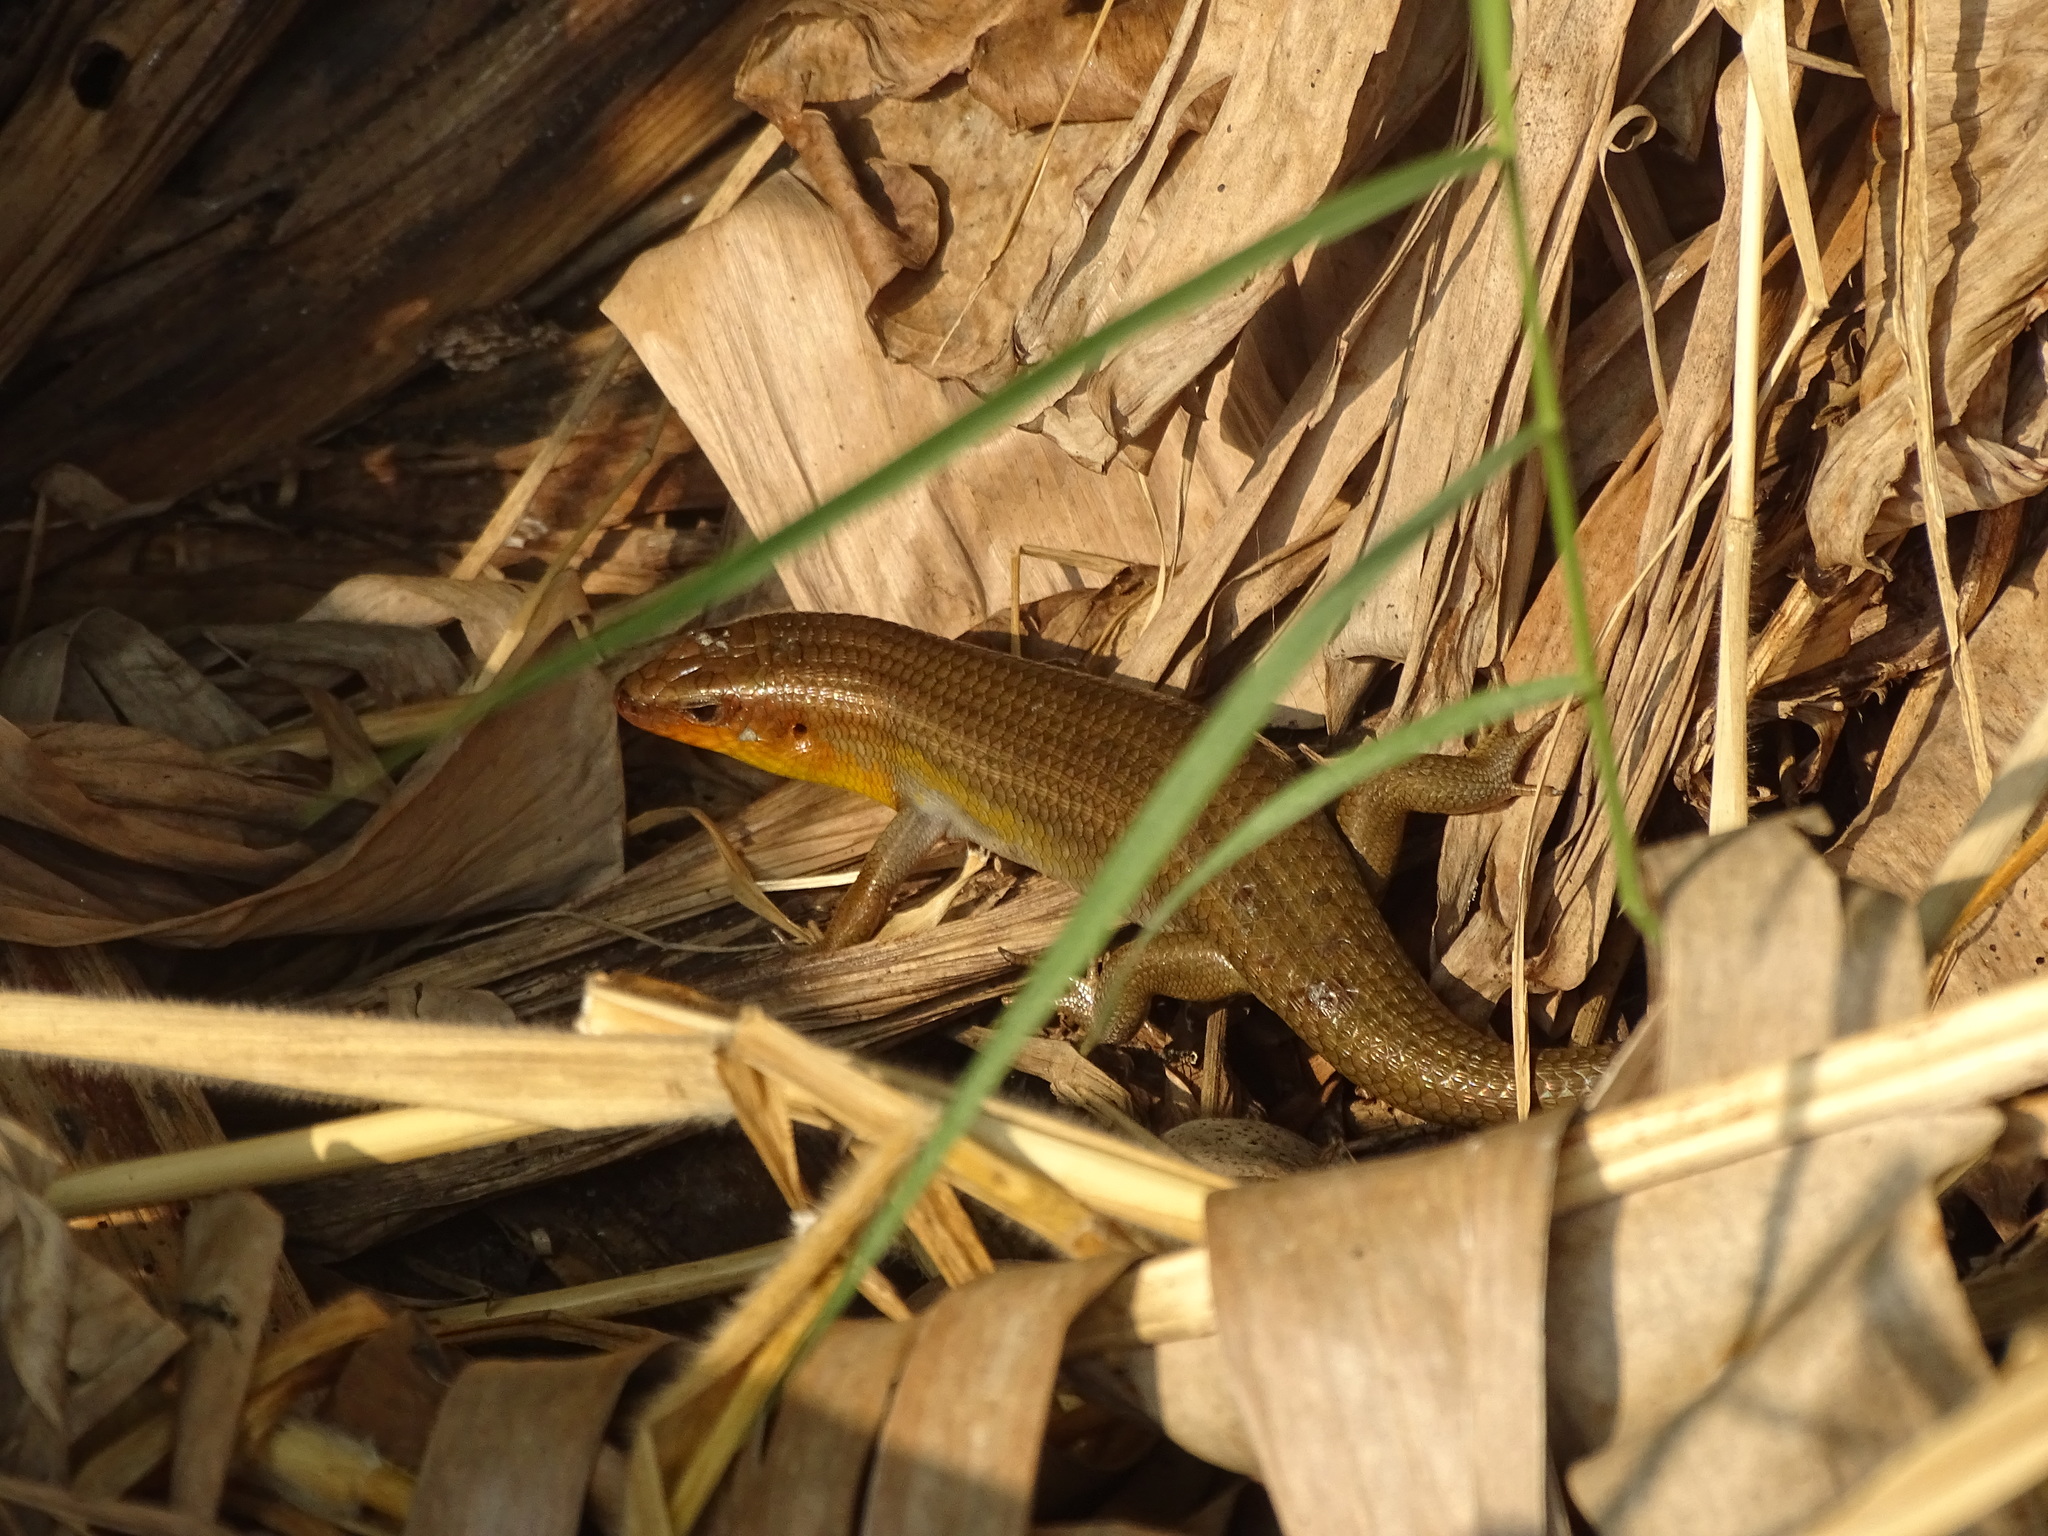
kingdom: Animalia
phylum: Chordata
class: Squamata
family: Scincidae
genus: Eutropis
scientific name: Eutropis multifasciata
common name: Common mabuya
